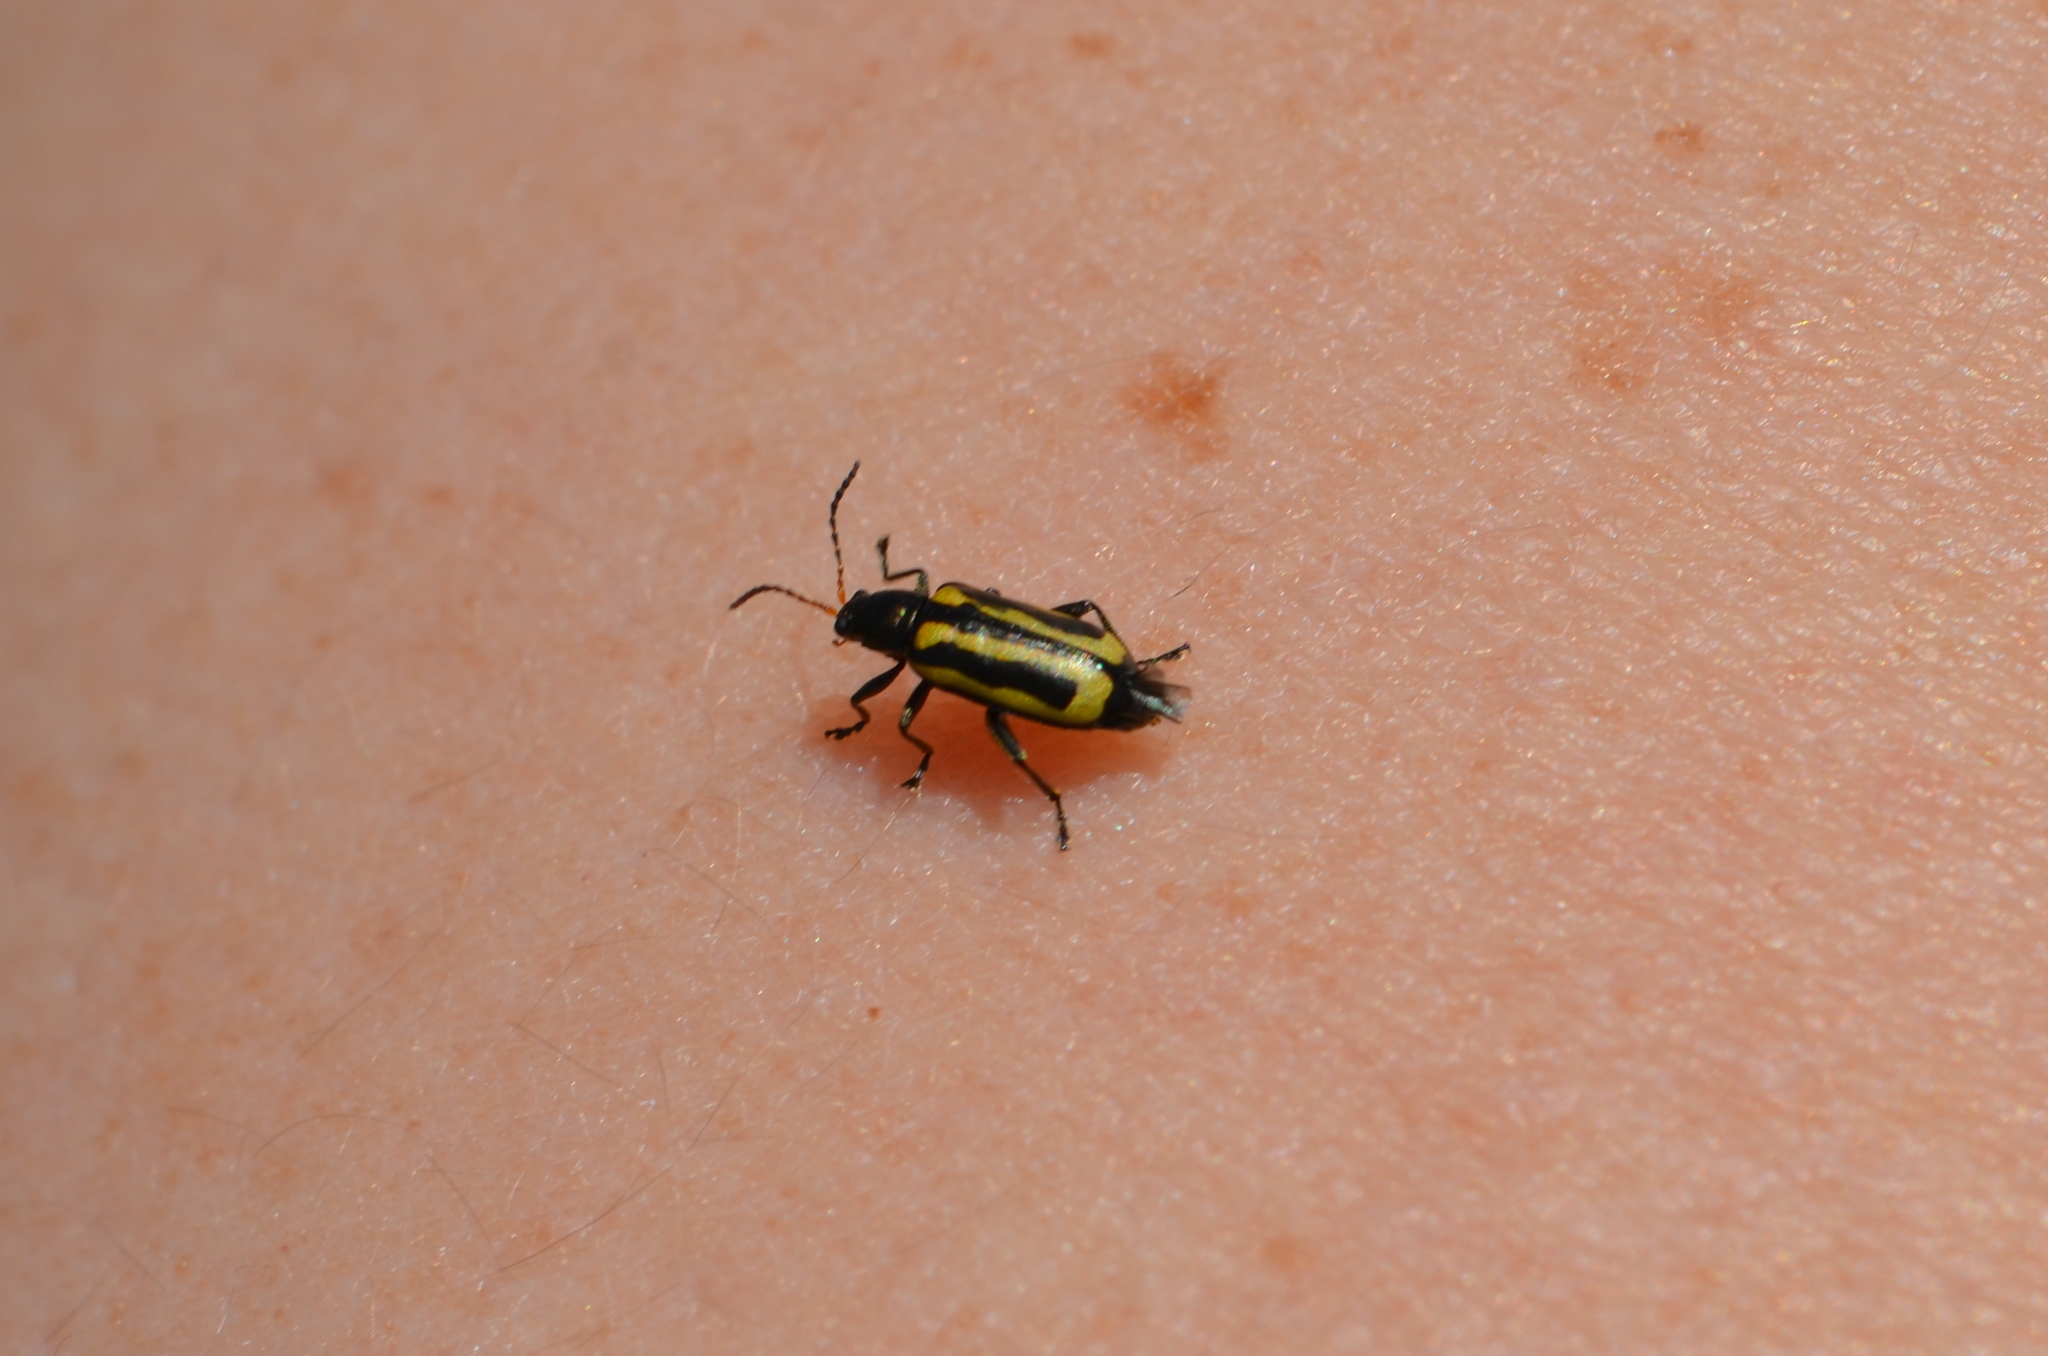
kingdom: Animalia
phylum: Arthropoda
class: Insecta
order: Coleoptera
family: Chrysomelidae
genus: Agasicles
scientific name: Agasicles hygrophila
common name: Alligatorweed flea beetle
